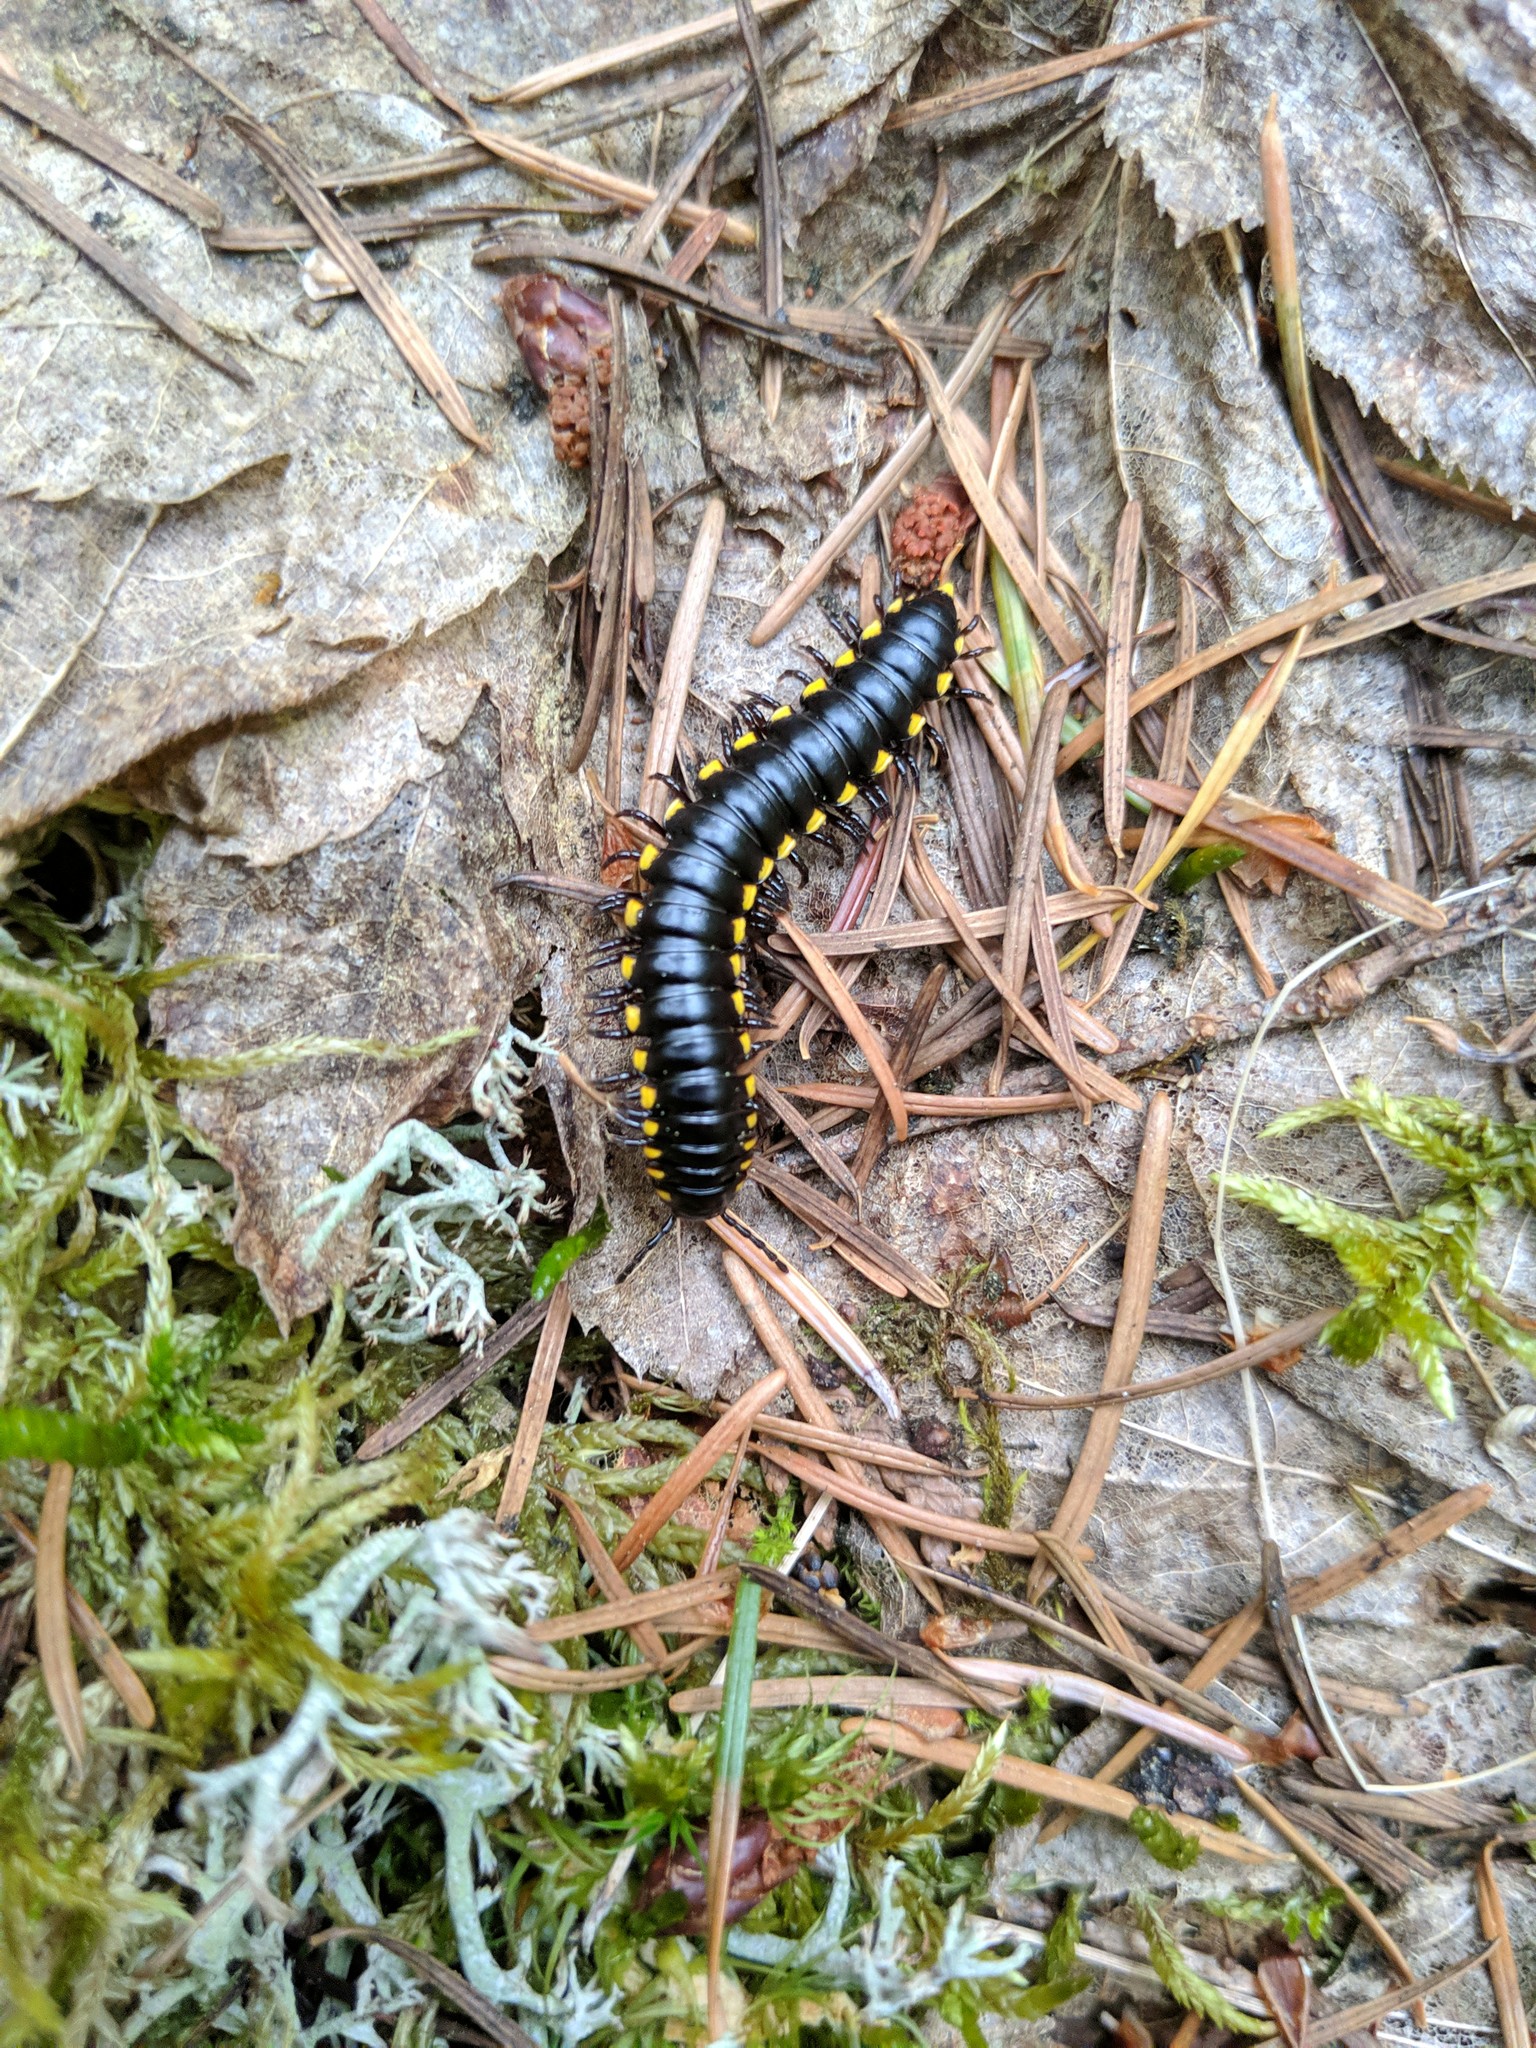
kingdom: Animalia
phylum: Arthropoda
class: Diplopoda
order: Polydesmida
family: Xystodesmidae
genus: Harpaphe
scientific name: Harpaphe haydeniana
